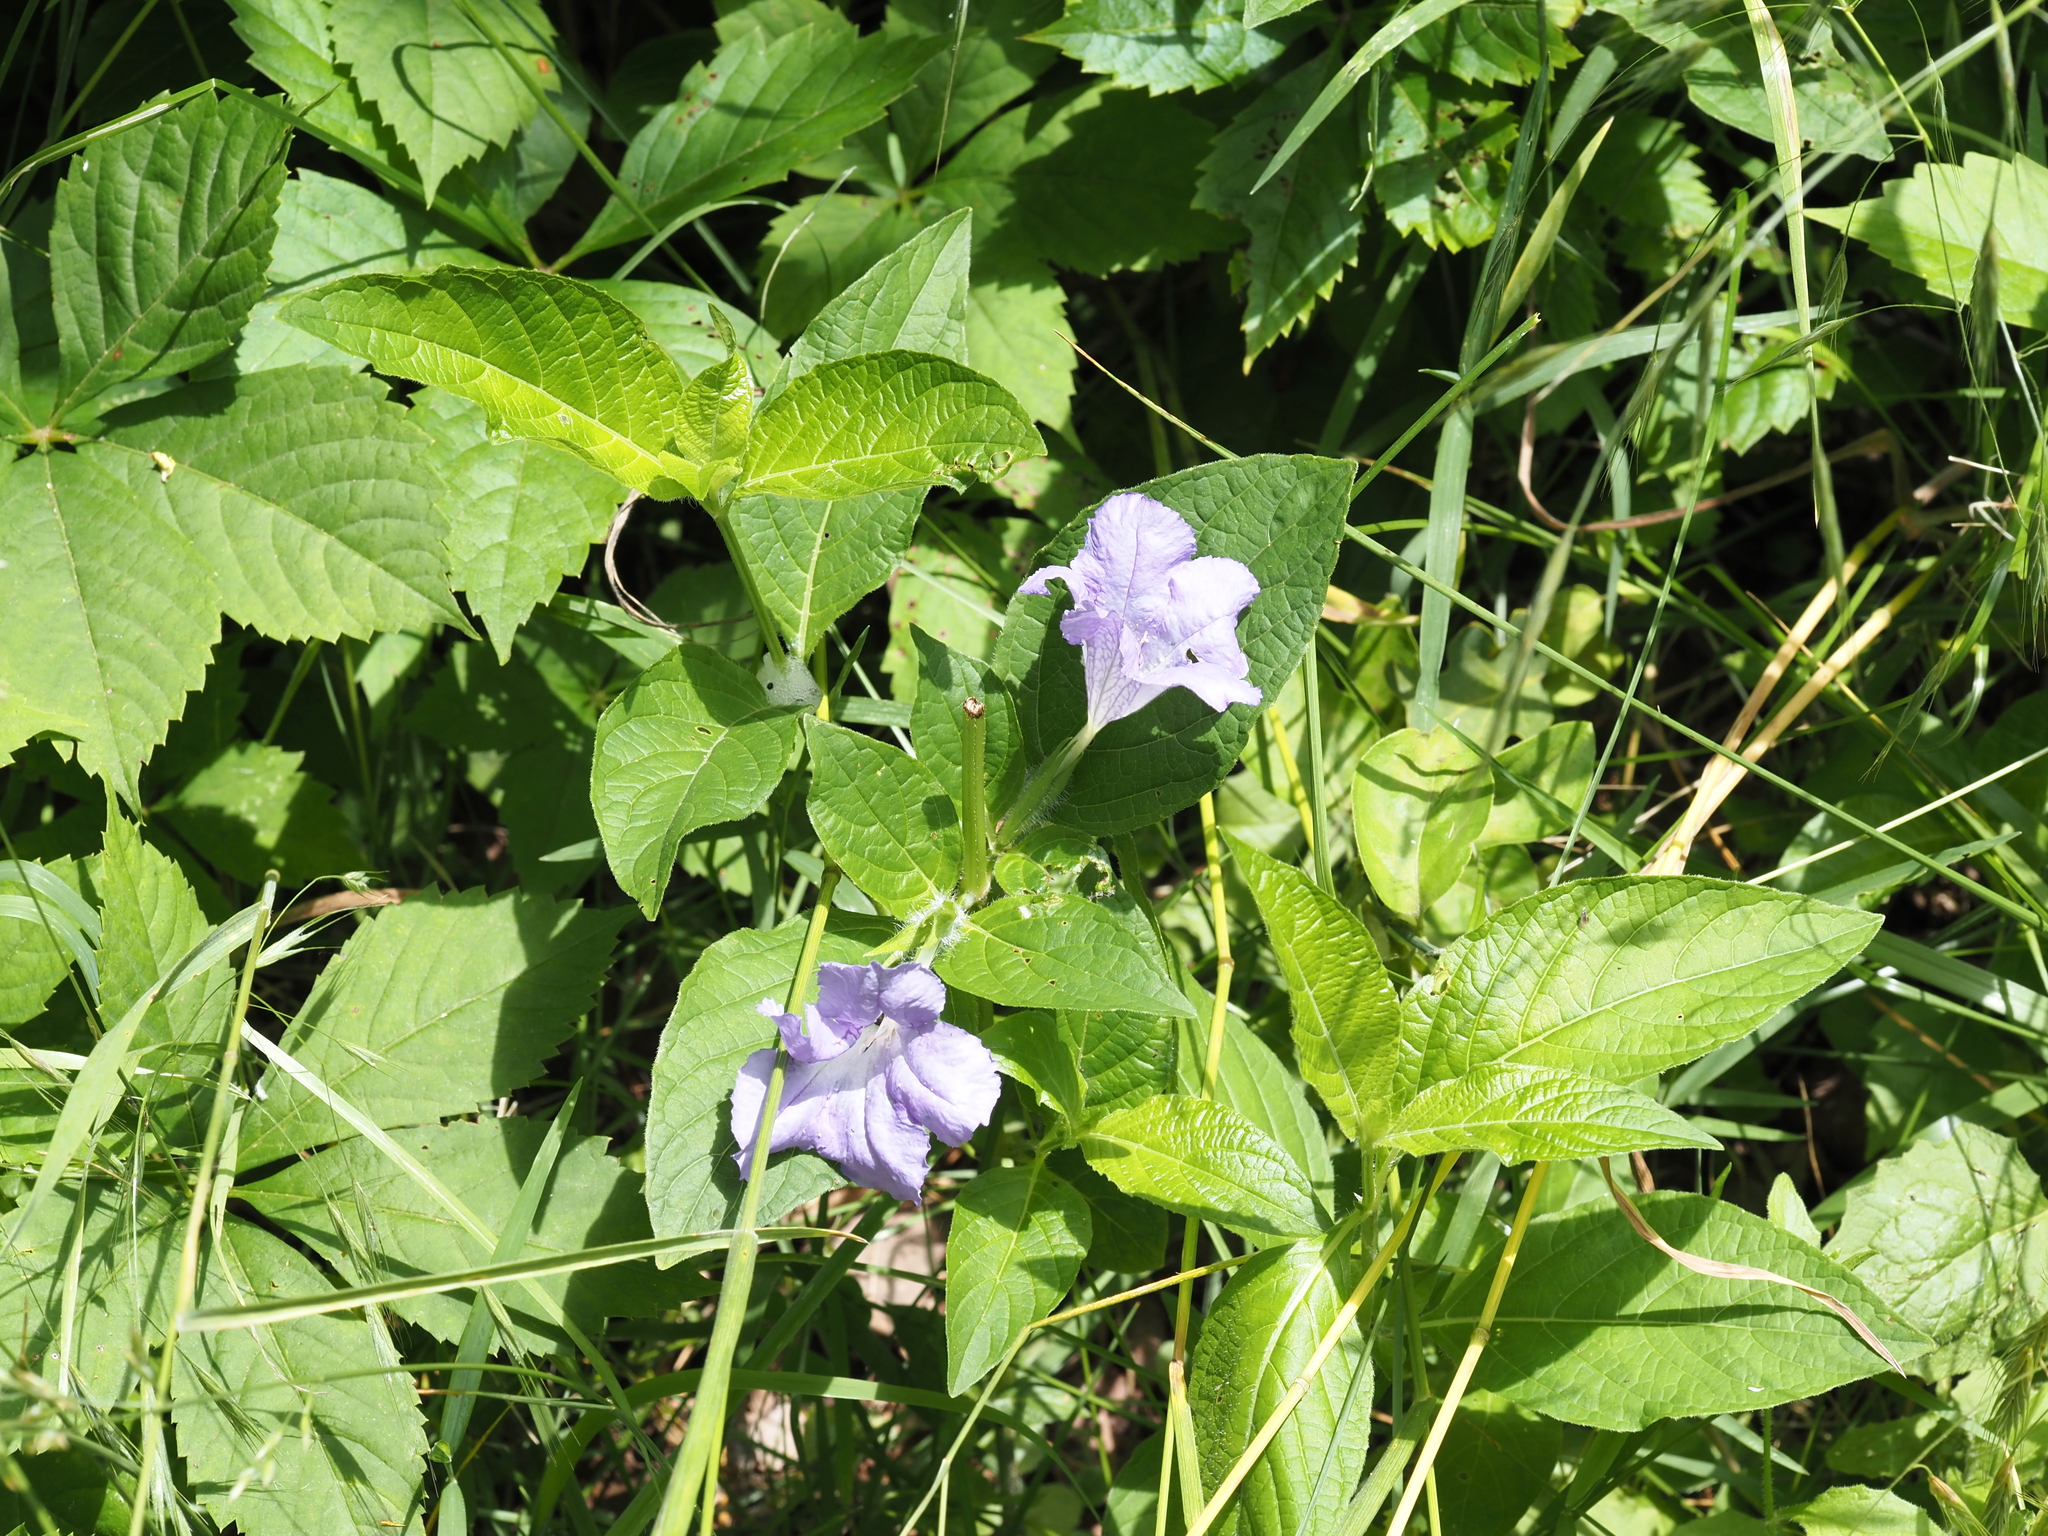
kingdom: Plantae
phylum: Tracheophyta
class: Magnoliopsida
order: Lamiales
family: Acanthaceae
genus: Ruellia
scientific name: Ruellia strepens
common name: Limestone wild petunia
